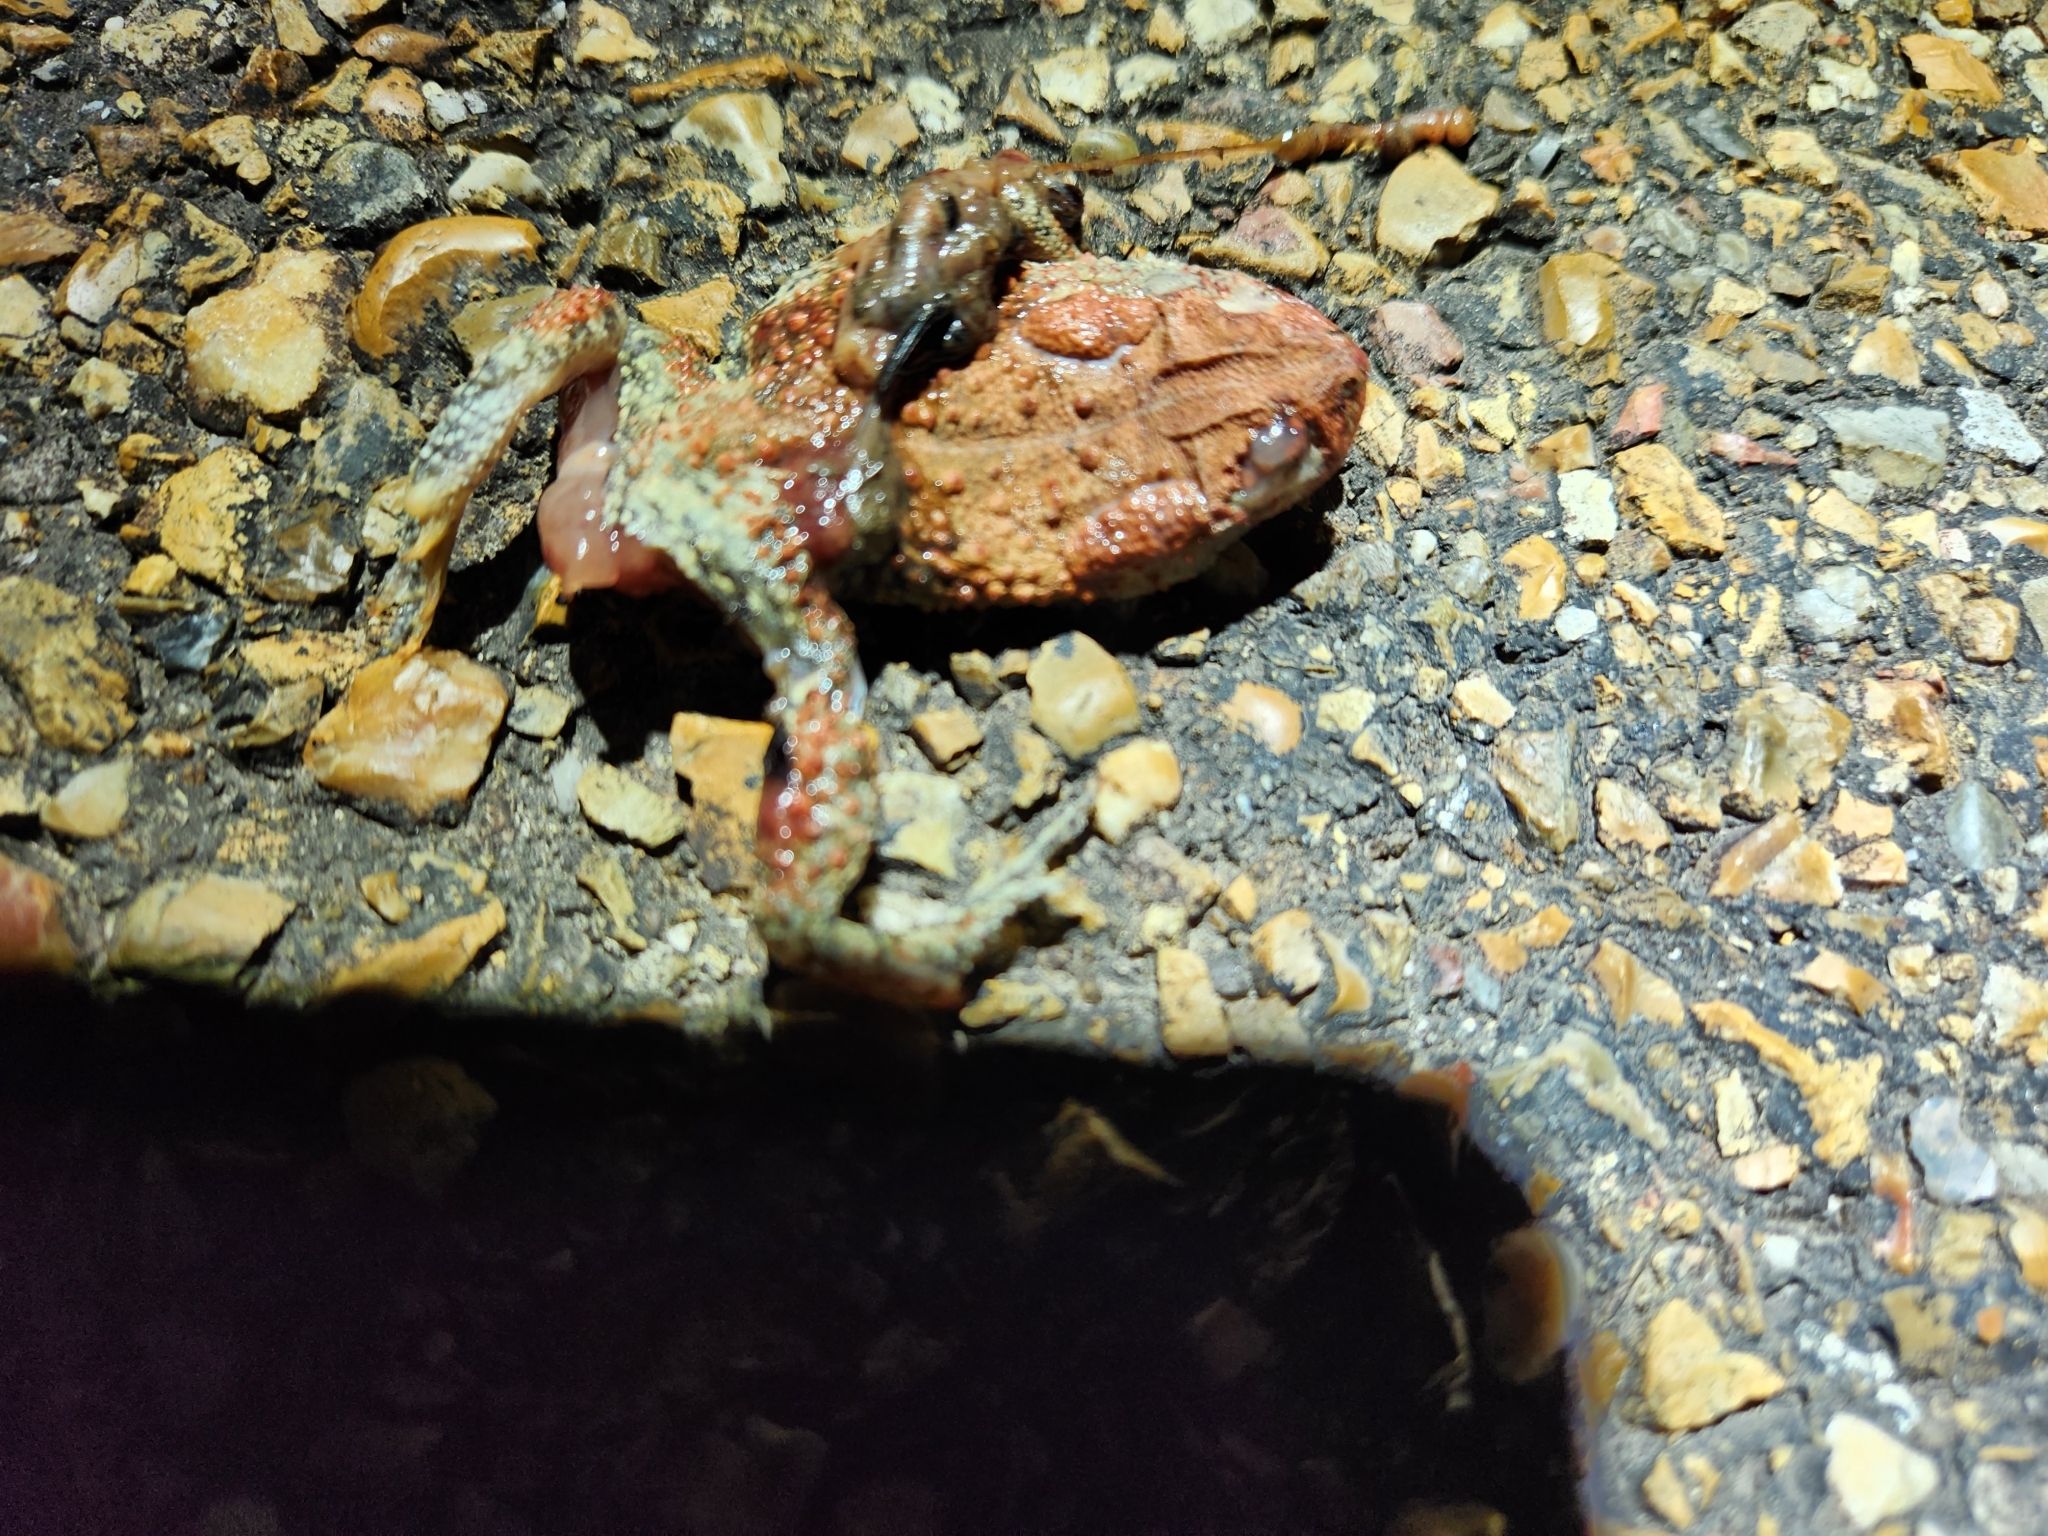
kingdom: Animalia
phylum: Chordata
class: Amphibia
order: Anura
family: Bufonidae
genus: Anaxyrus
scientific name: Anaxyrus americanus
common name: American toad
